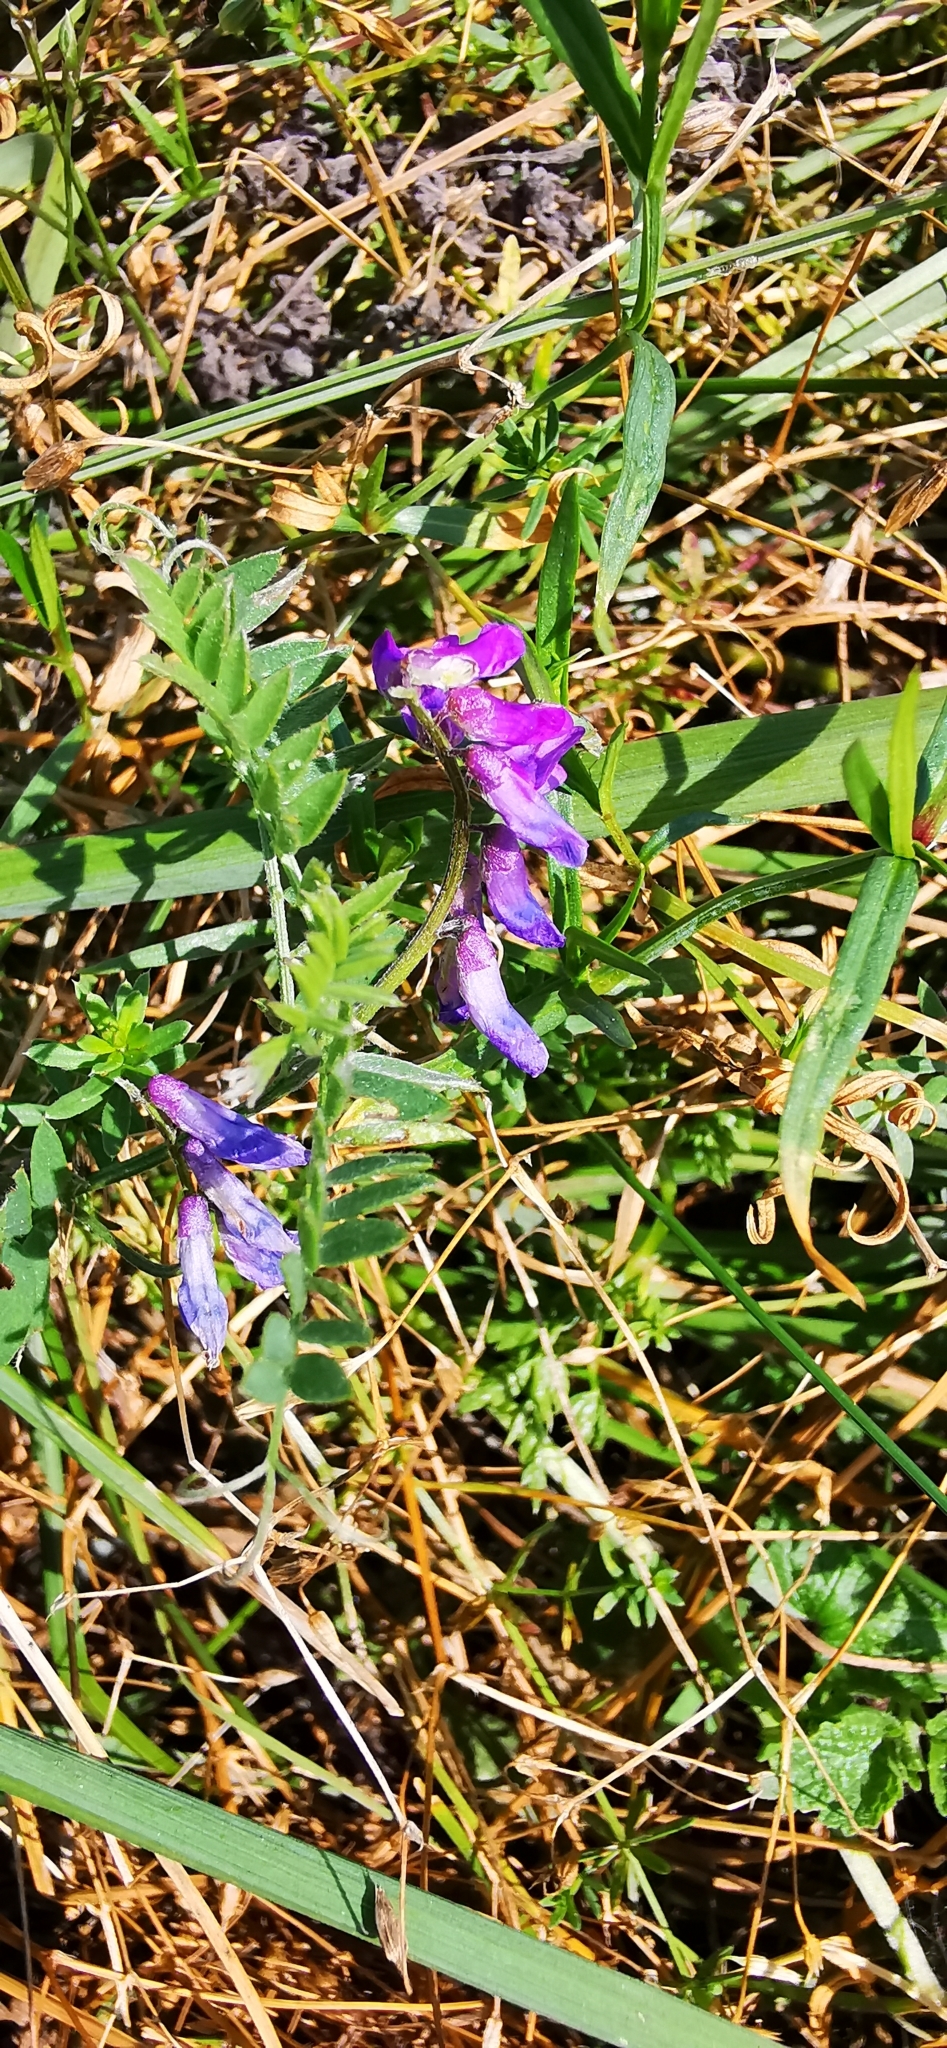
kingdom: Plantae
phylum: Tracheophyta
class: Magnoliopsida
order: Fabales
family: Fabaceae
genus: Vicia
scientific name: Vicia cracca
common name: Bird vetch
